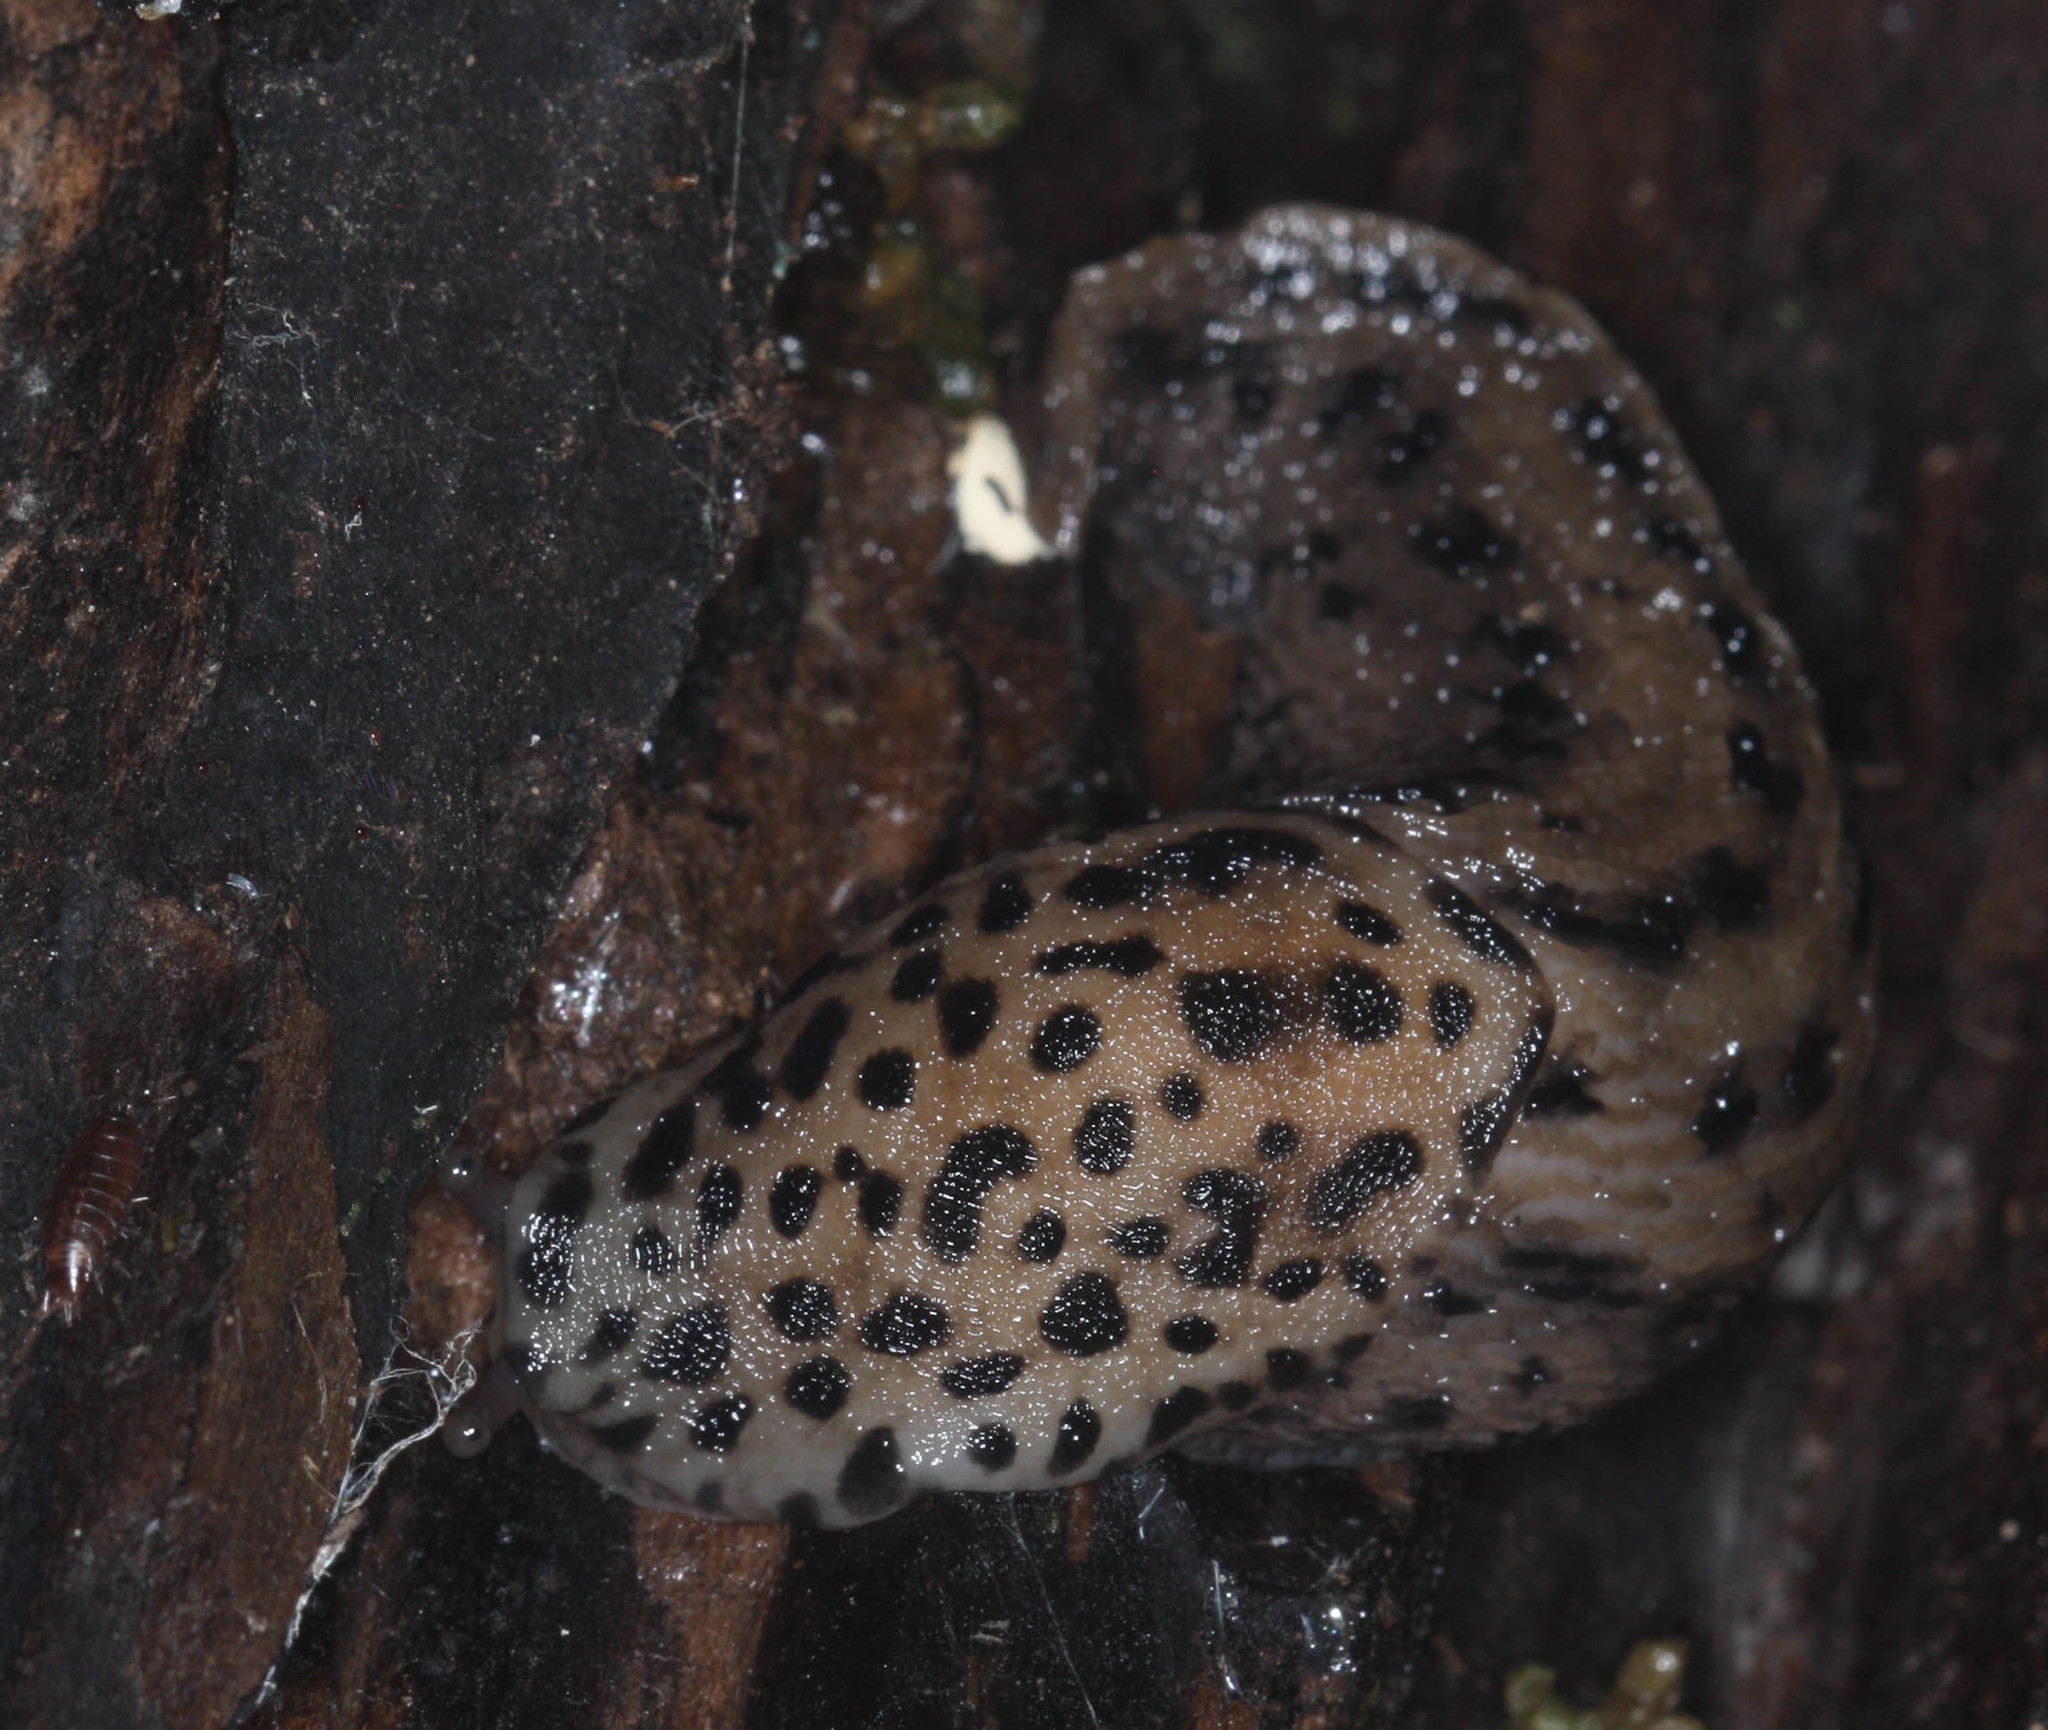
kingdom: Animalia
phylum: Mollusca
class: Gastropoda
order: Stylommatophora
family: Limacidae
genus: Limax
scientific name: Limax maximus
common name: Great grey slug
